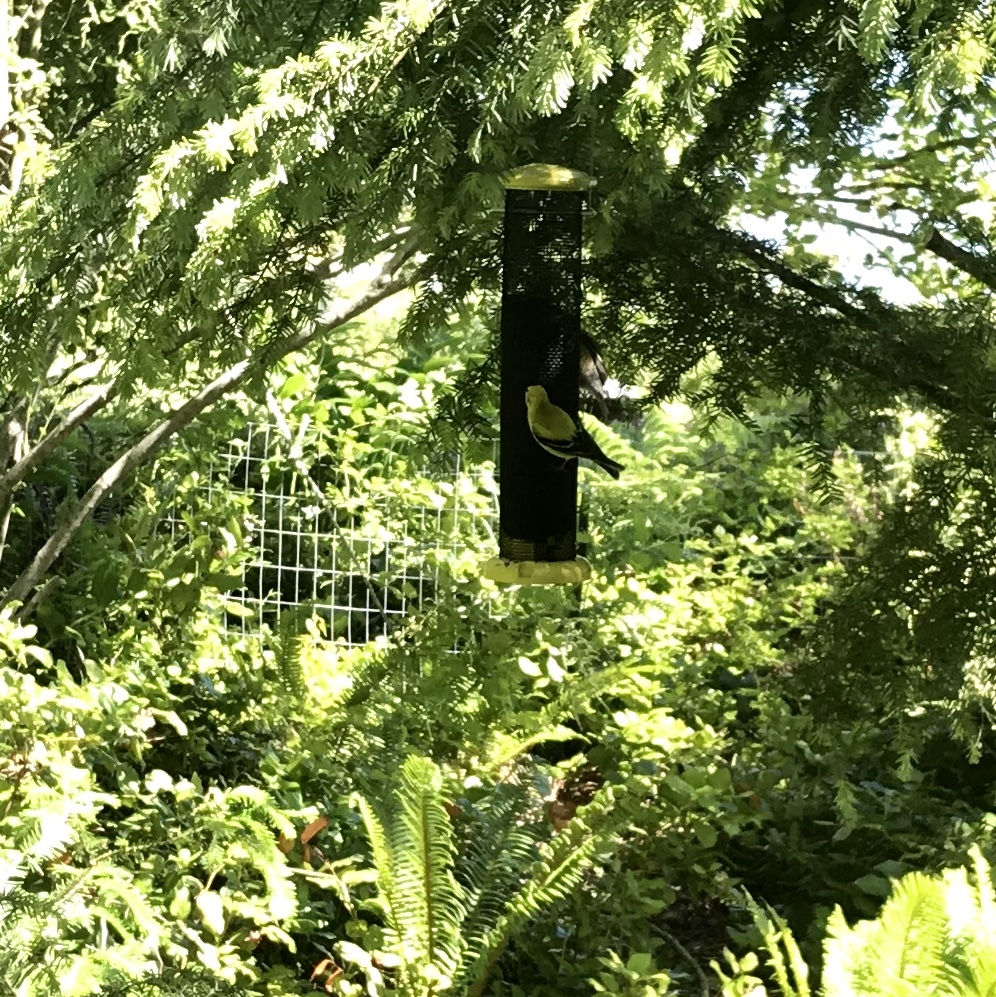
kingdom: Animalia
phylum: Chordata
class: Aves
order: Passeriformes
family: Fringillidae
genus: Spinus
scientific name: Spinus tristis
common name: American goldfinch
